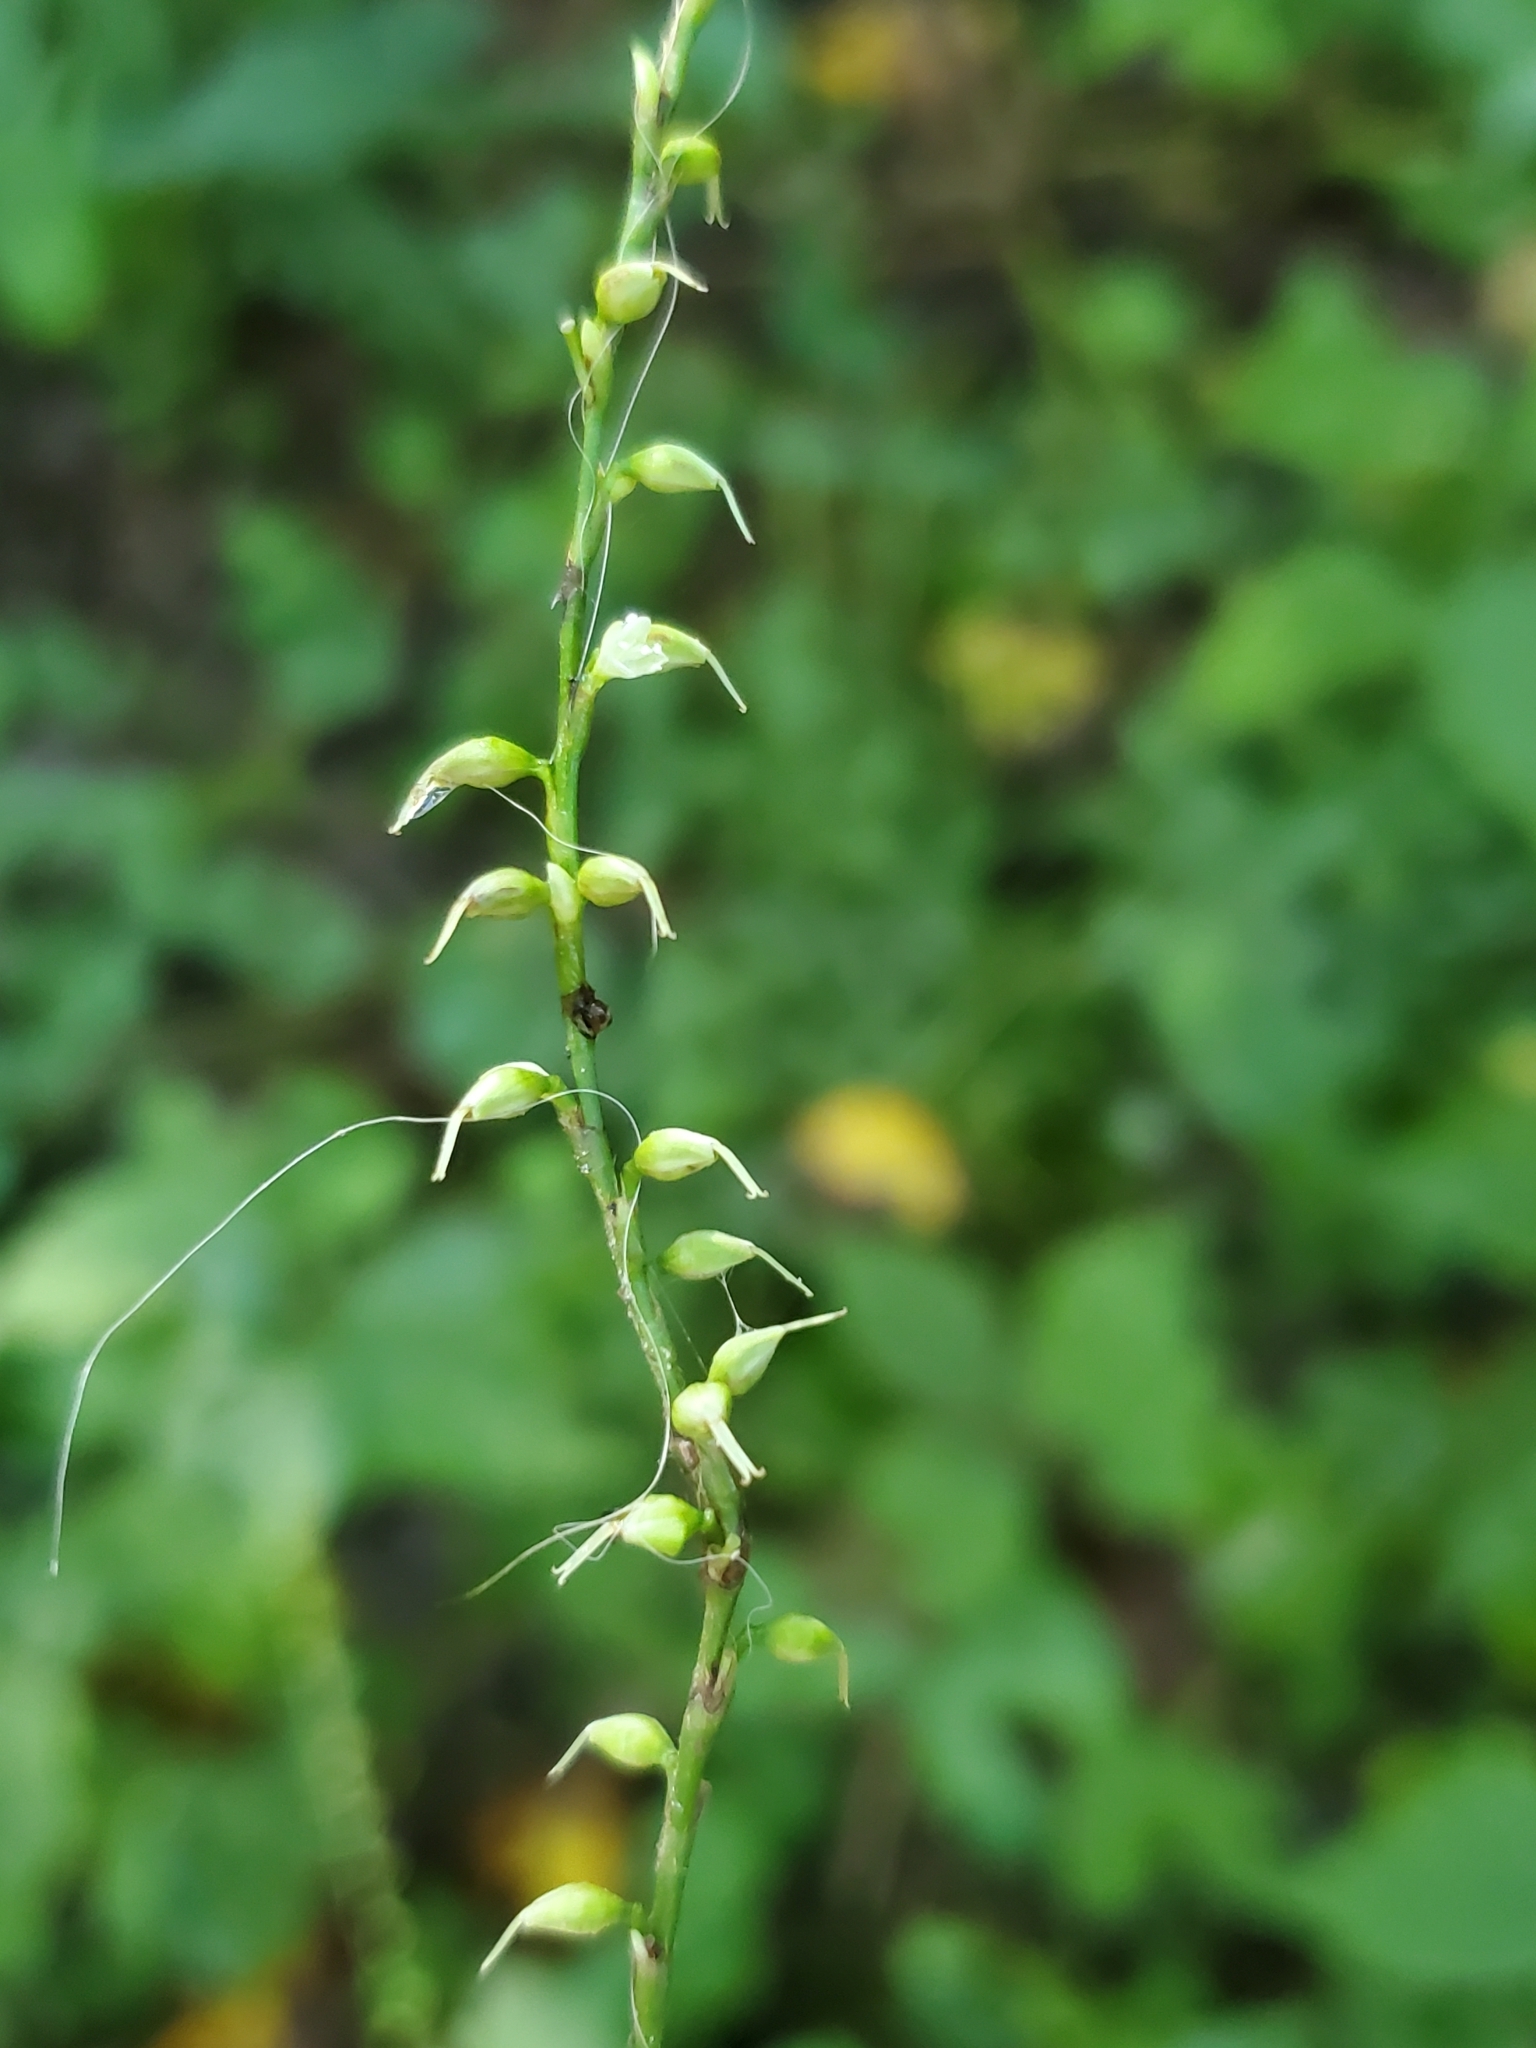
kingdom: Plantae
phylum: Tracheophyta
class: Magnoliopsida
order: Caryophyllales
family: Polygonaceae
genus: Persicaria
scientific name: Persicaria virginiana
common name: Jumpseed
